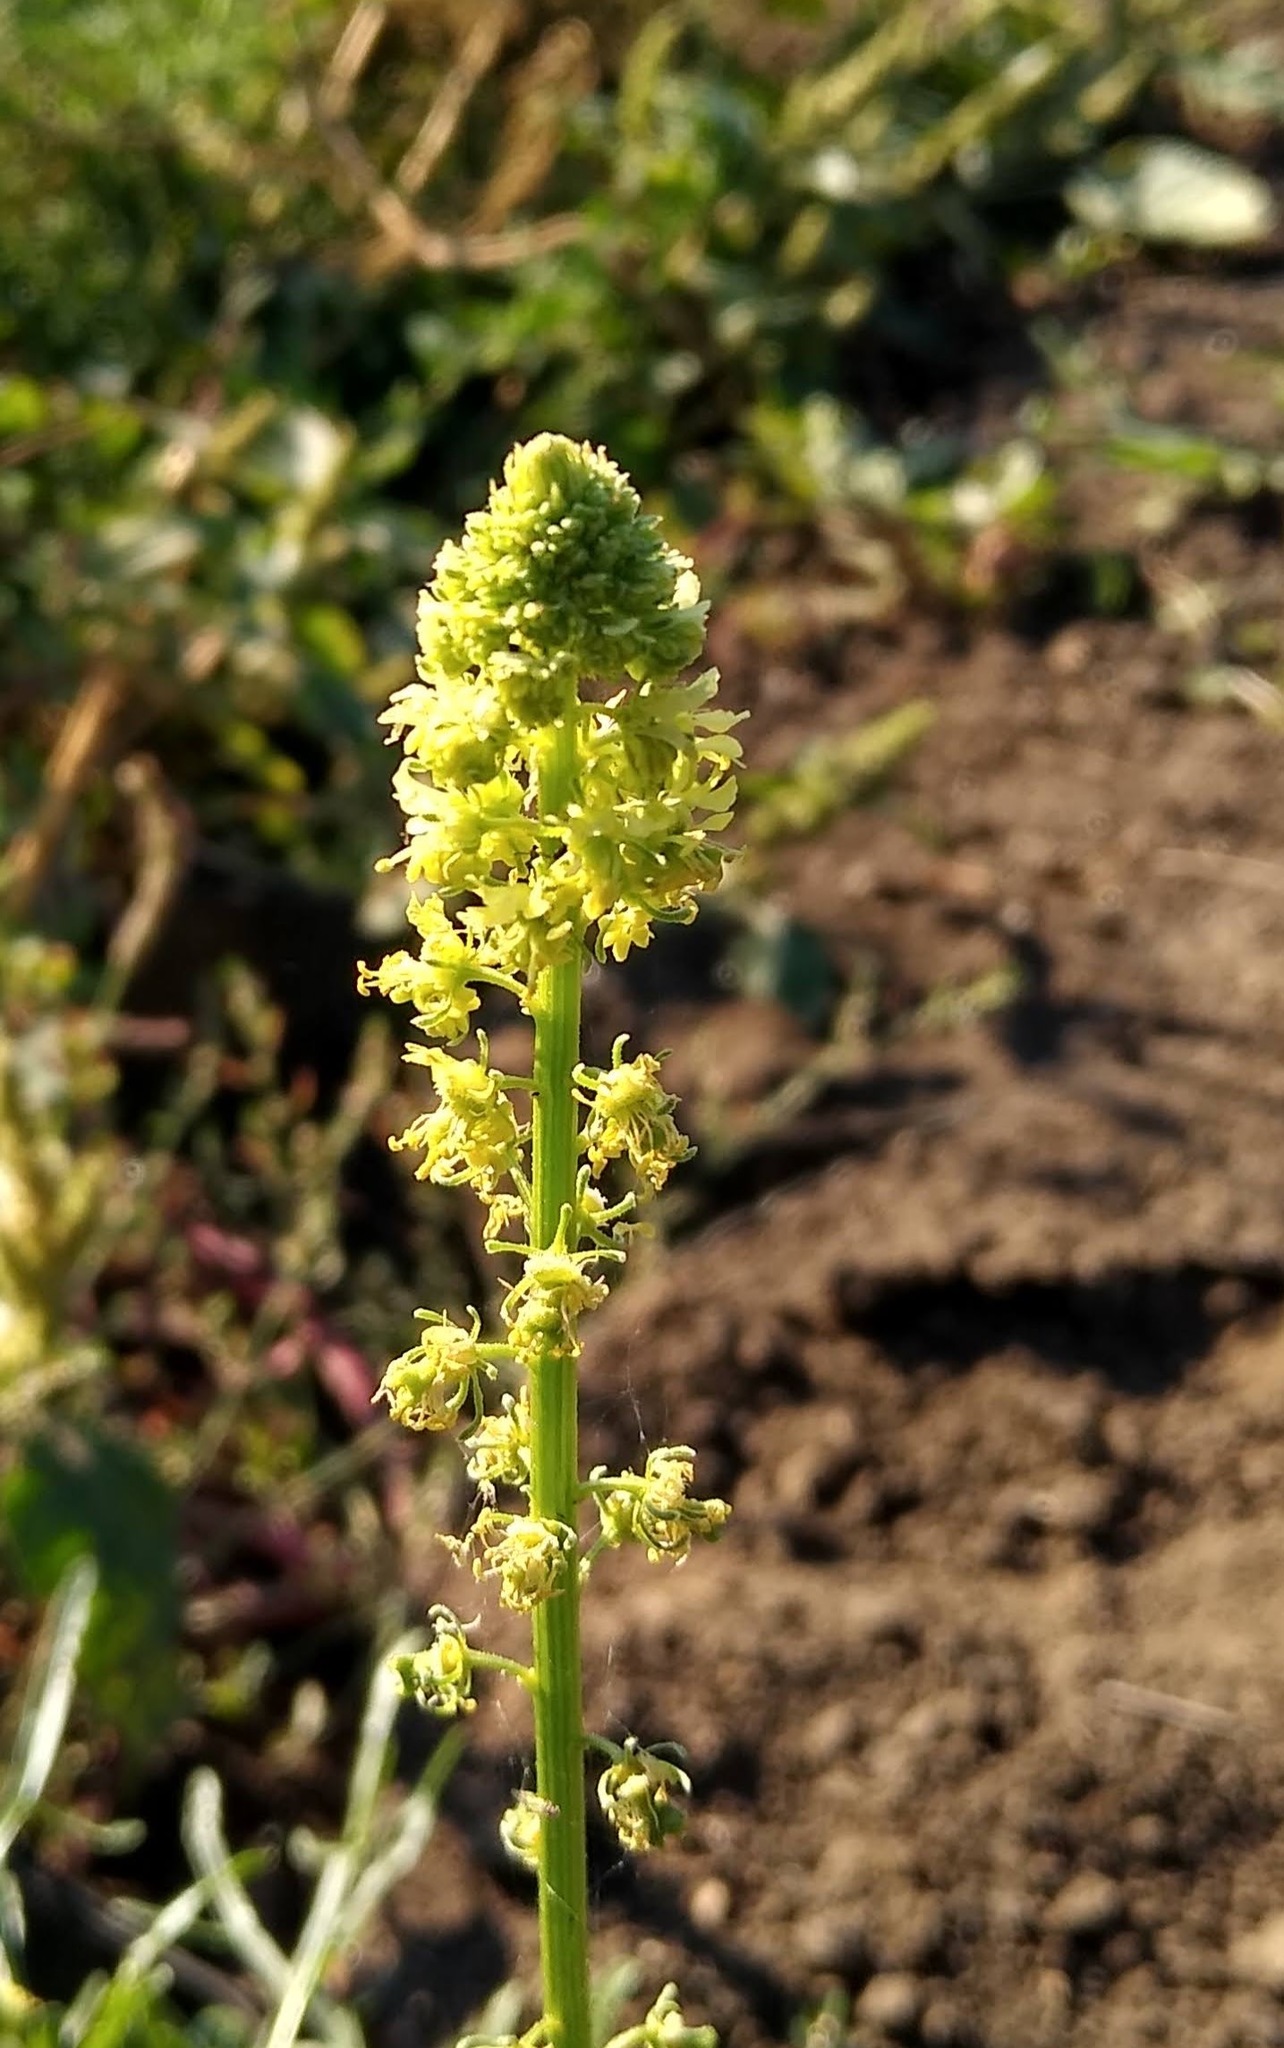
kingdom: Plantae
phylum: Tracheophyta
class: Magnoliopsida
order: Brassicales
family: Resedaceae
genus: Reseda
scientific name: Reseda lutea
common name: Wild mignonette
